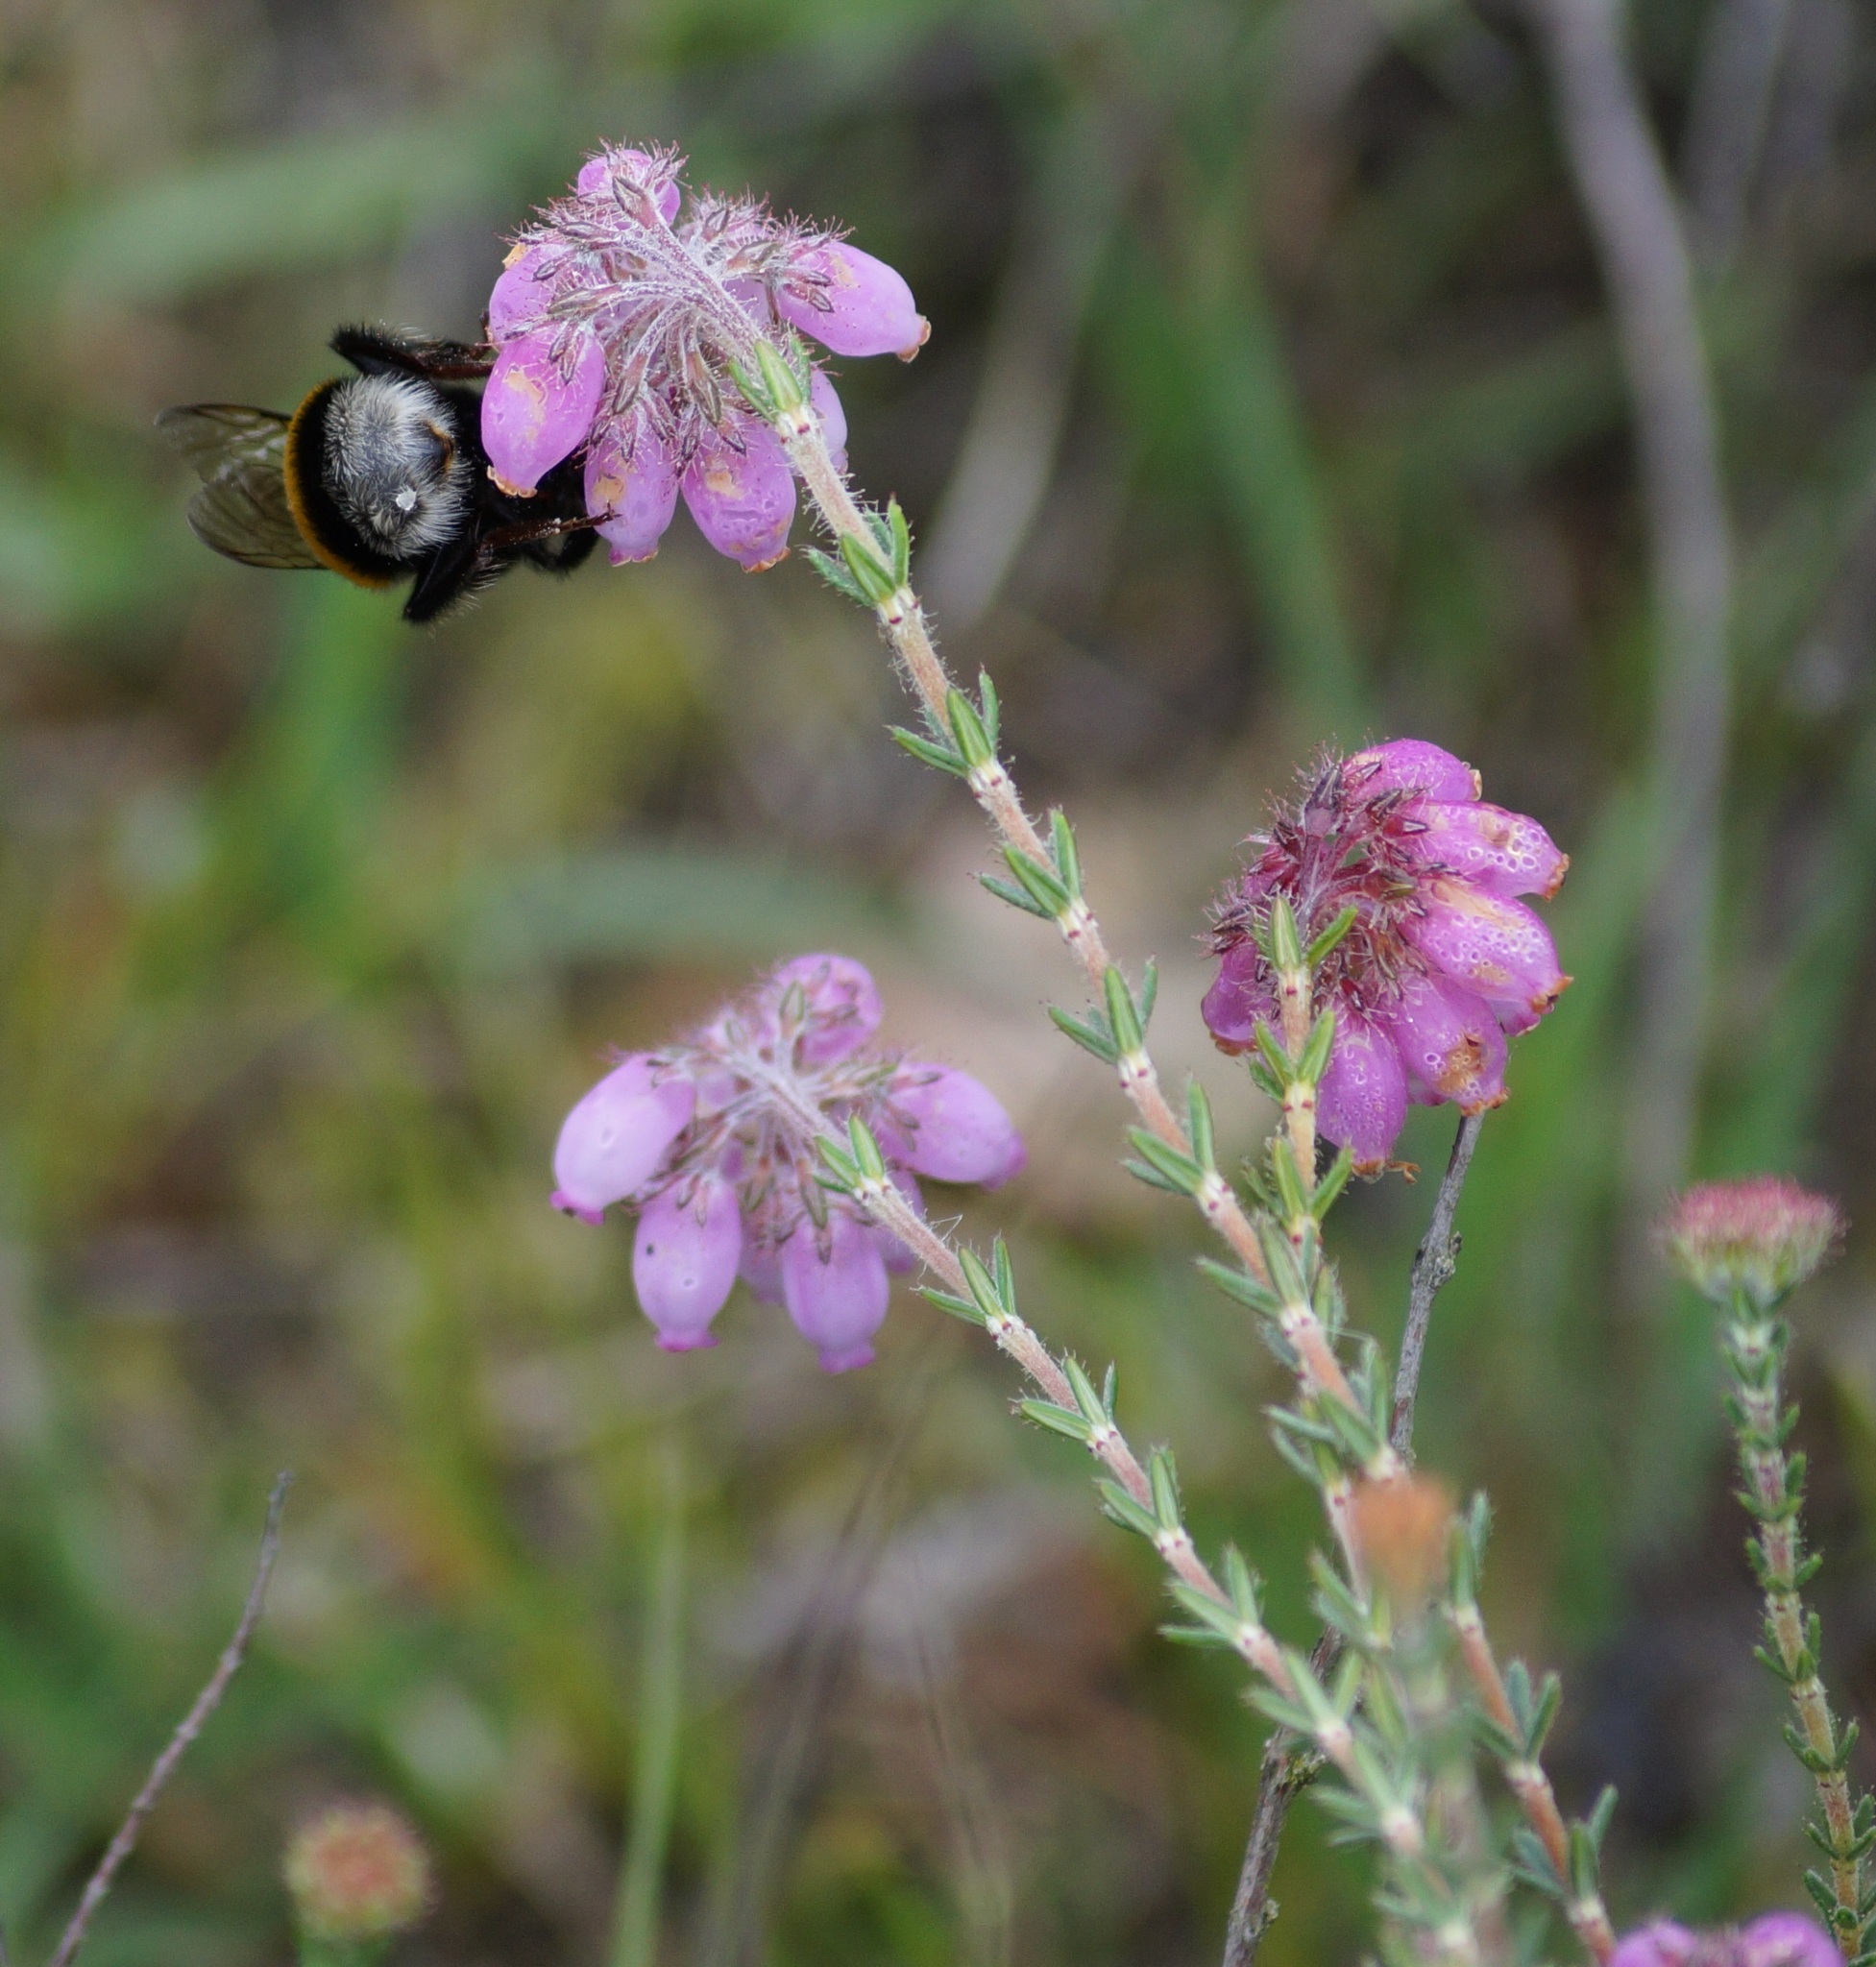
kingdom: Plantae
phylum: Tracheophyta
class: Magnoliopsida
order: Ericales
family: Ericaceae
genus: Erica
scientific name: Erica tetralix
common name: Cross-leaved heath
